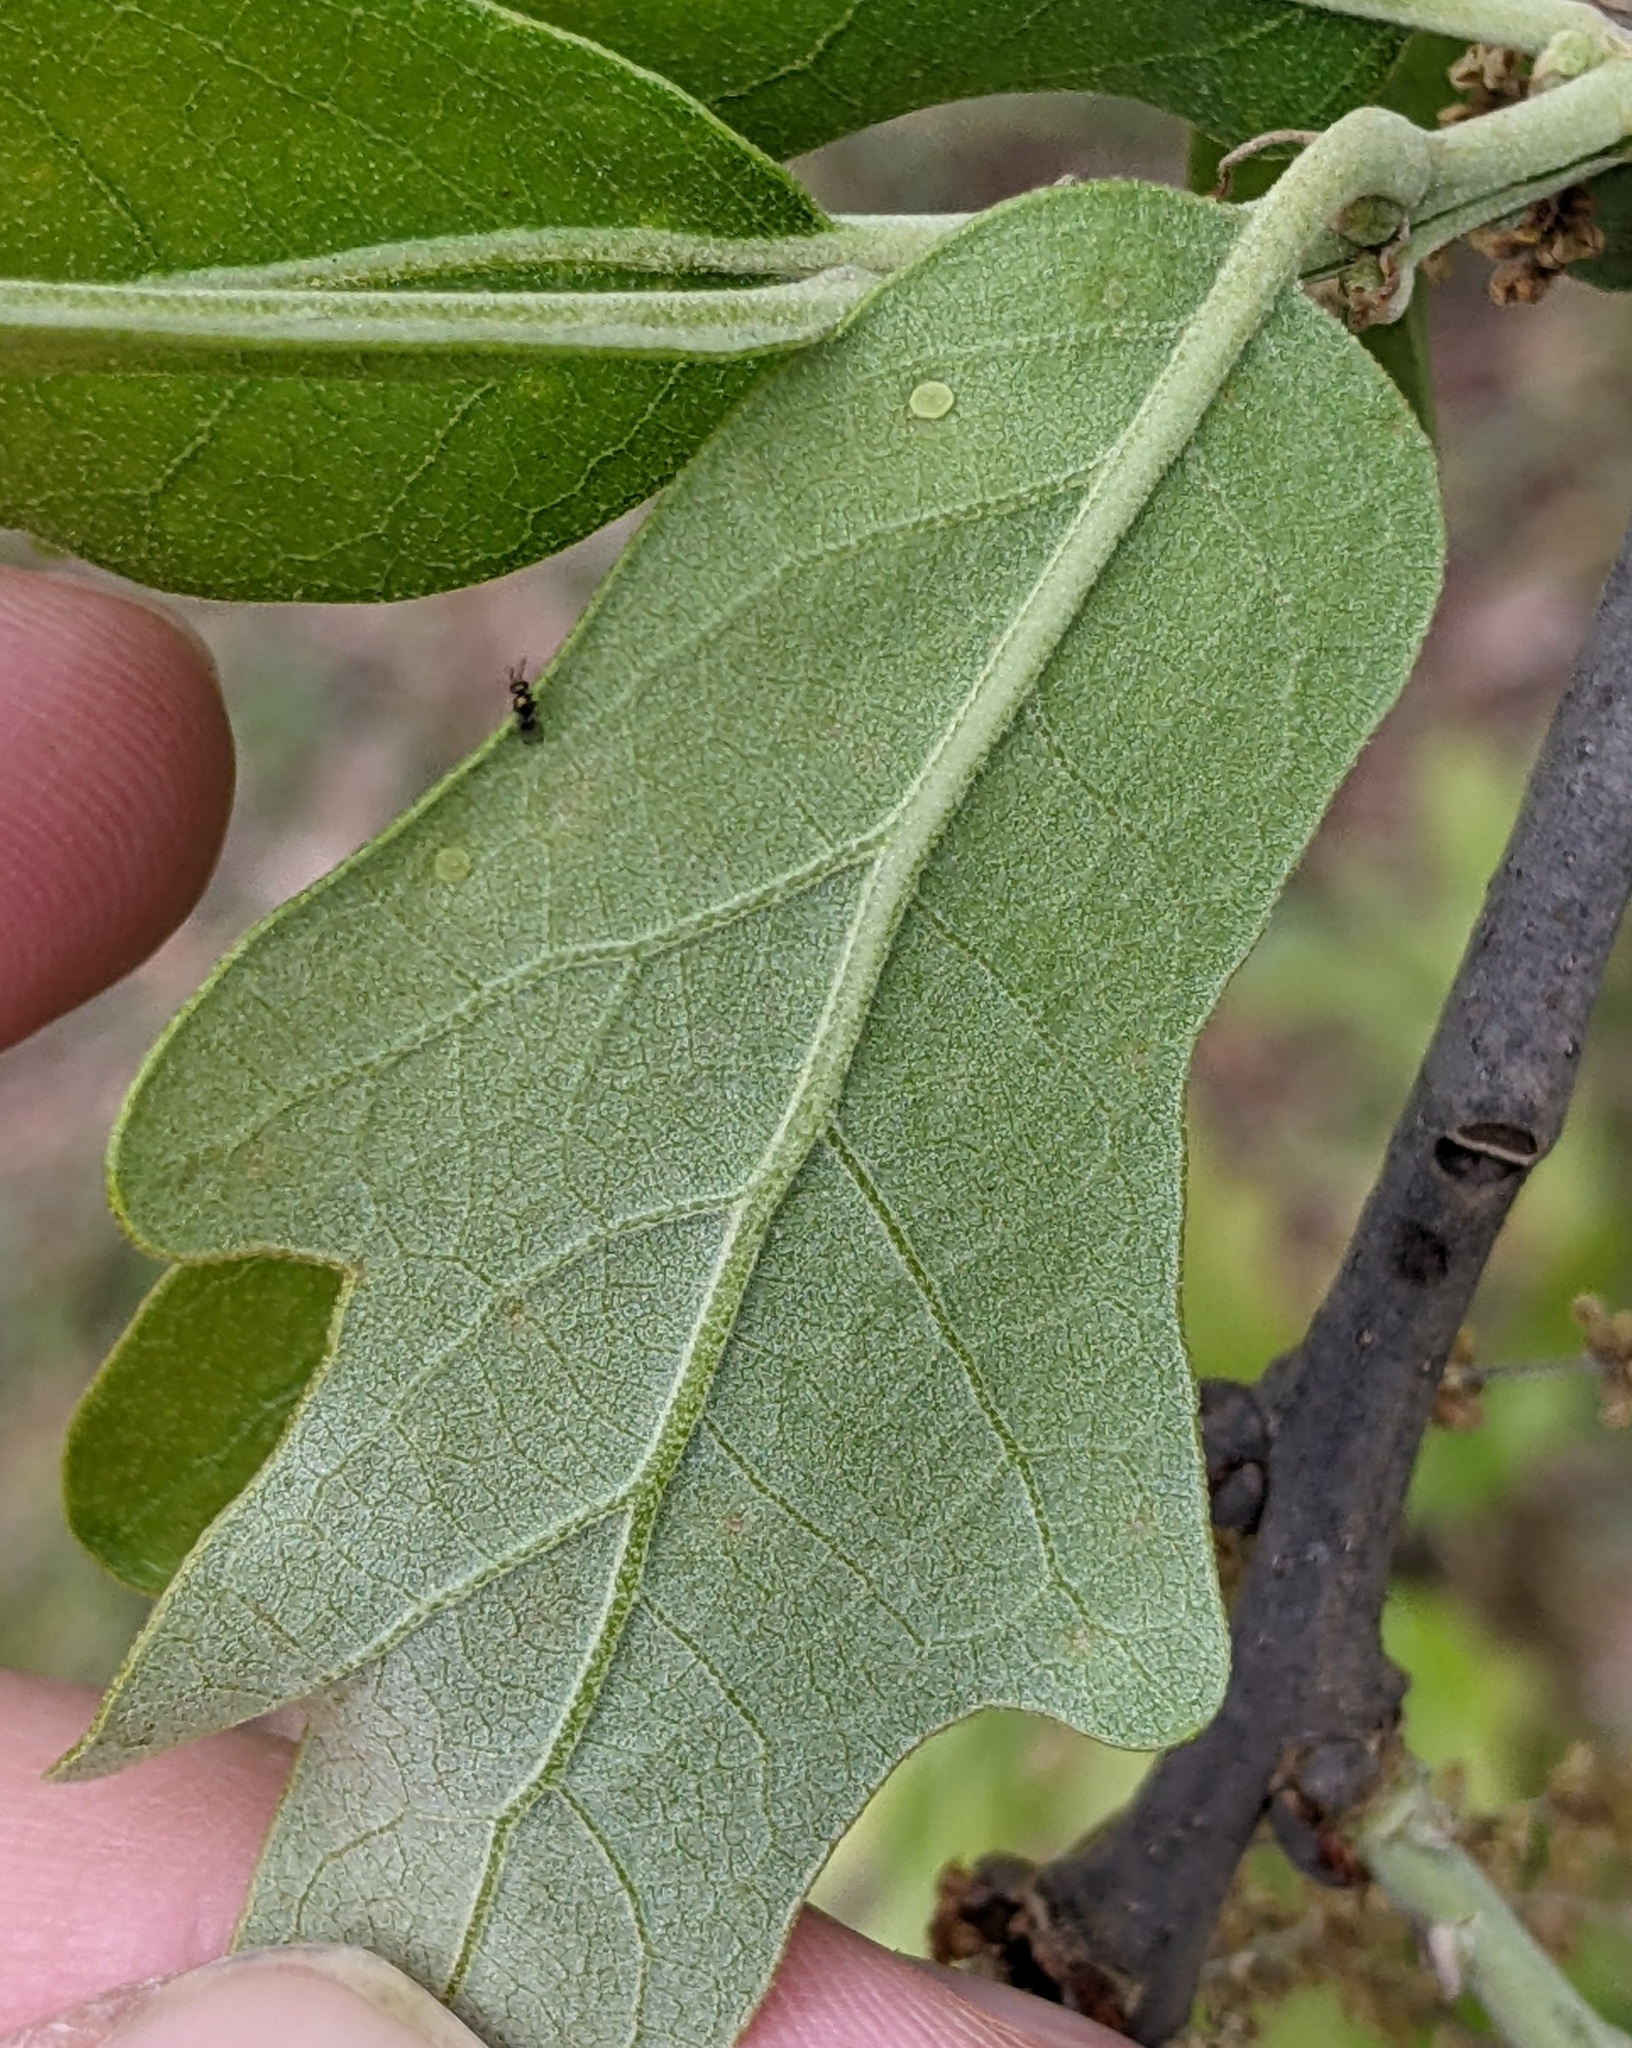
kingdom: Animalia
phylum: Arthropoda
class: Insecta
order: Hymenoptera
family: Cynipidae
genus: Neuroterus
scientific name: Neuroterus
